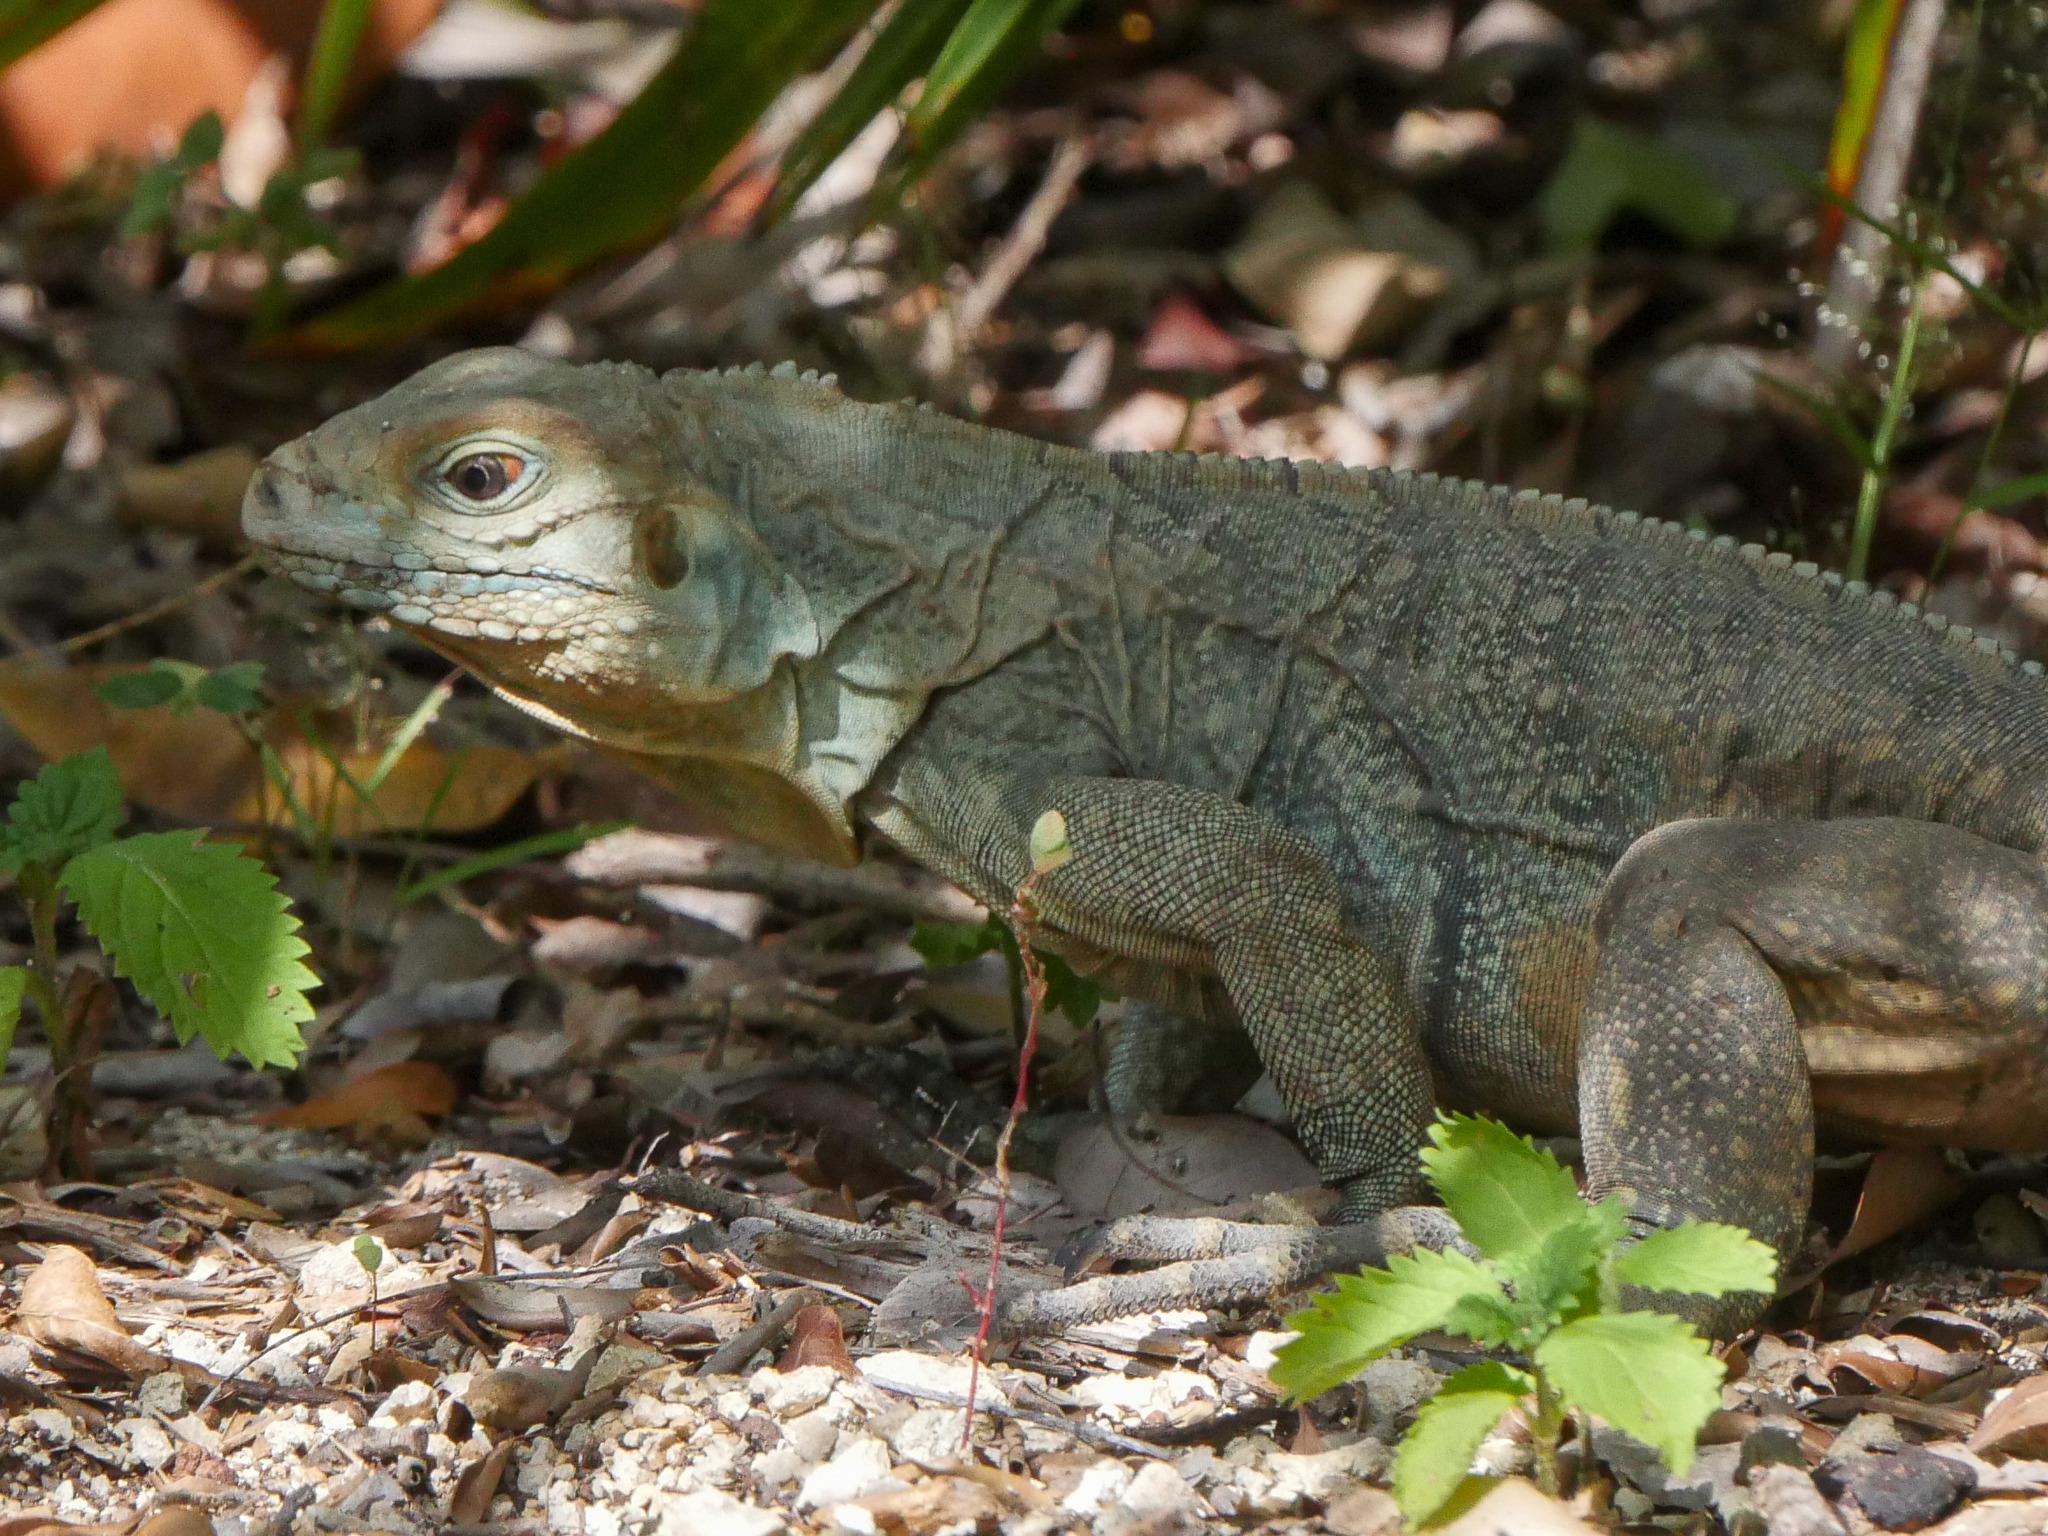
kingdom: Animalia
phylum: Chordata
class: Squamata
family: Iguanidae
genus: Cyclura
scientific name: Cyclura lewisi
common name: Grand cayman blue iguana
